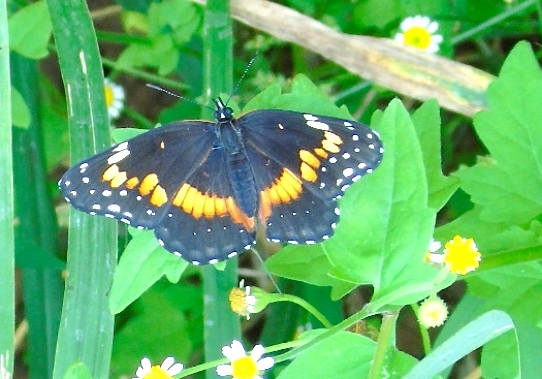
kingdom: Animalia
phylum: Arthropoda
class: Insecta
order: Lepidoptera
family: Nymphalidae
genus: Chlosyne
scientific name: Chlosyne lacinia
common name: Bordered patch
